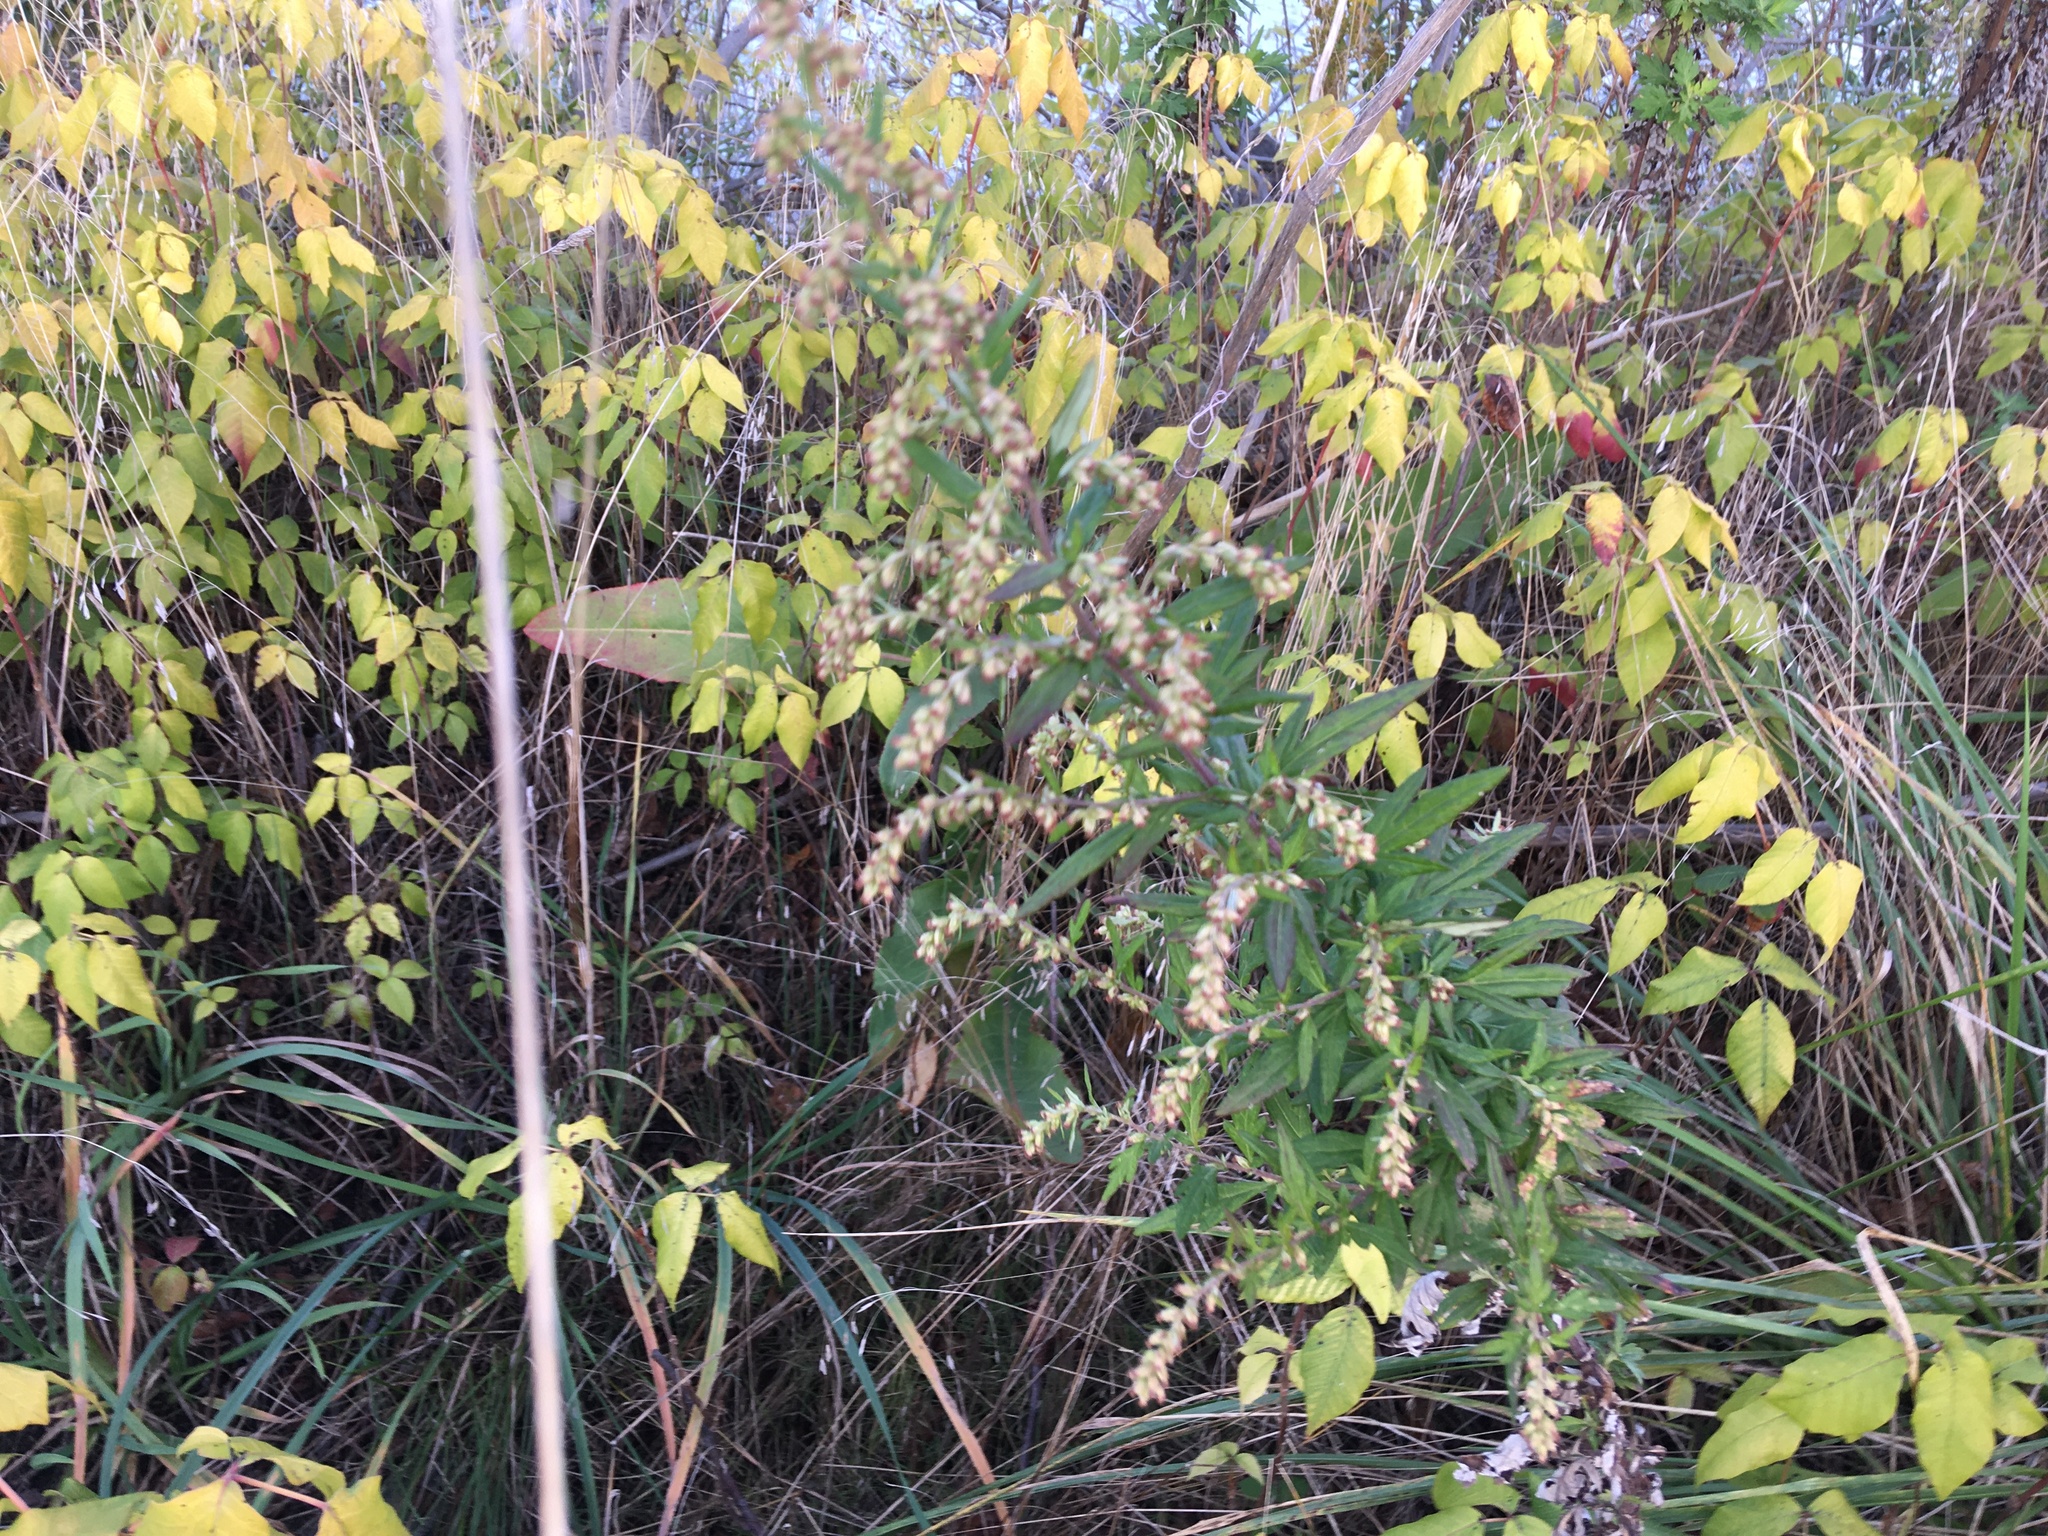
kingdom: Plantae
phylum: Tracheophyta
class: Magnoliopsida
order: Asterales
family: Asteraceae
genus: Artemisia
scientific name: Artemisia vulgaris
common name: Mugwort
